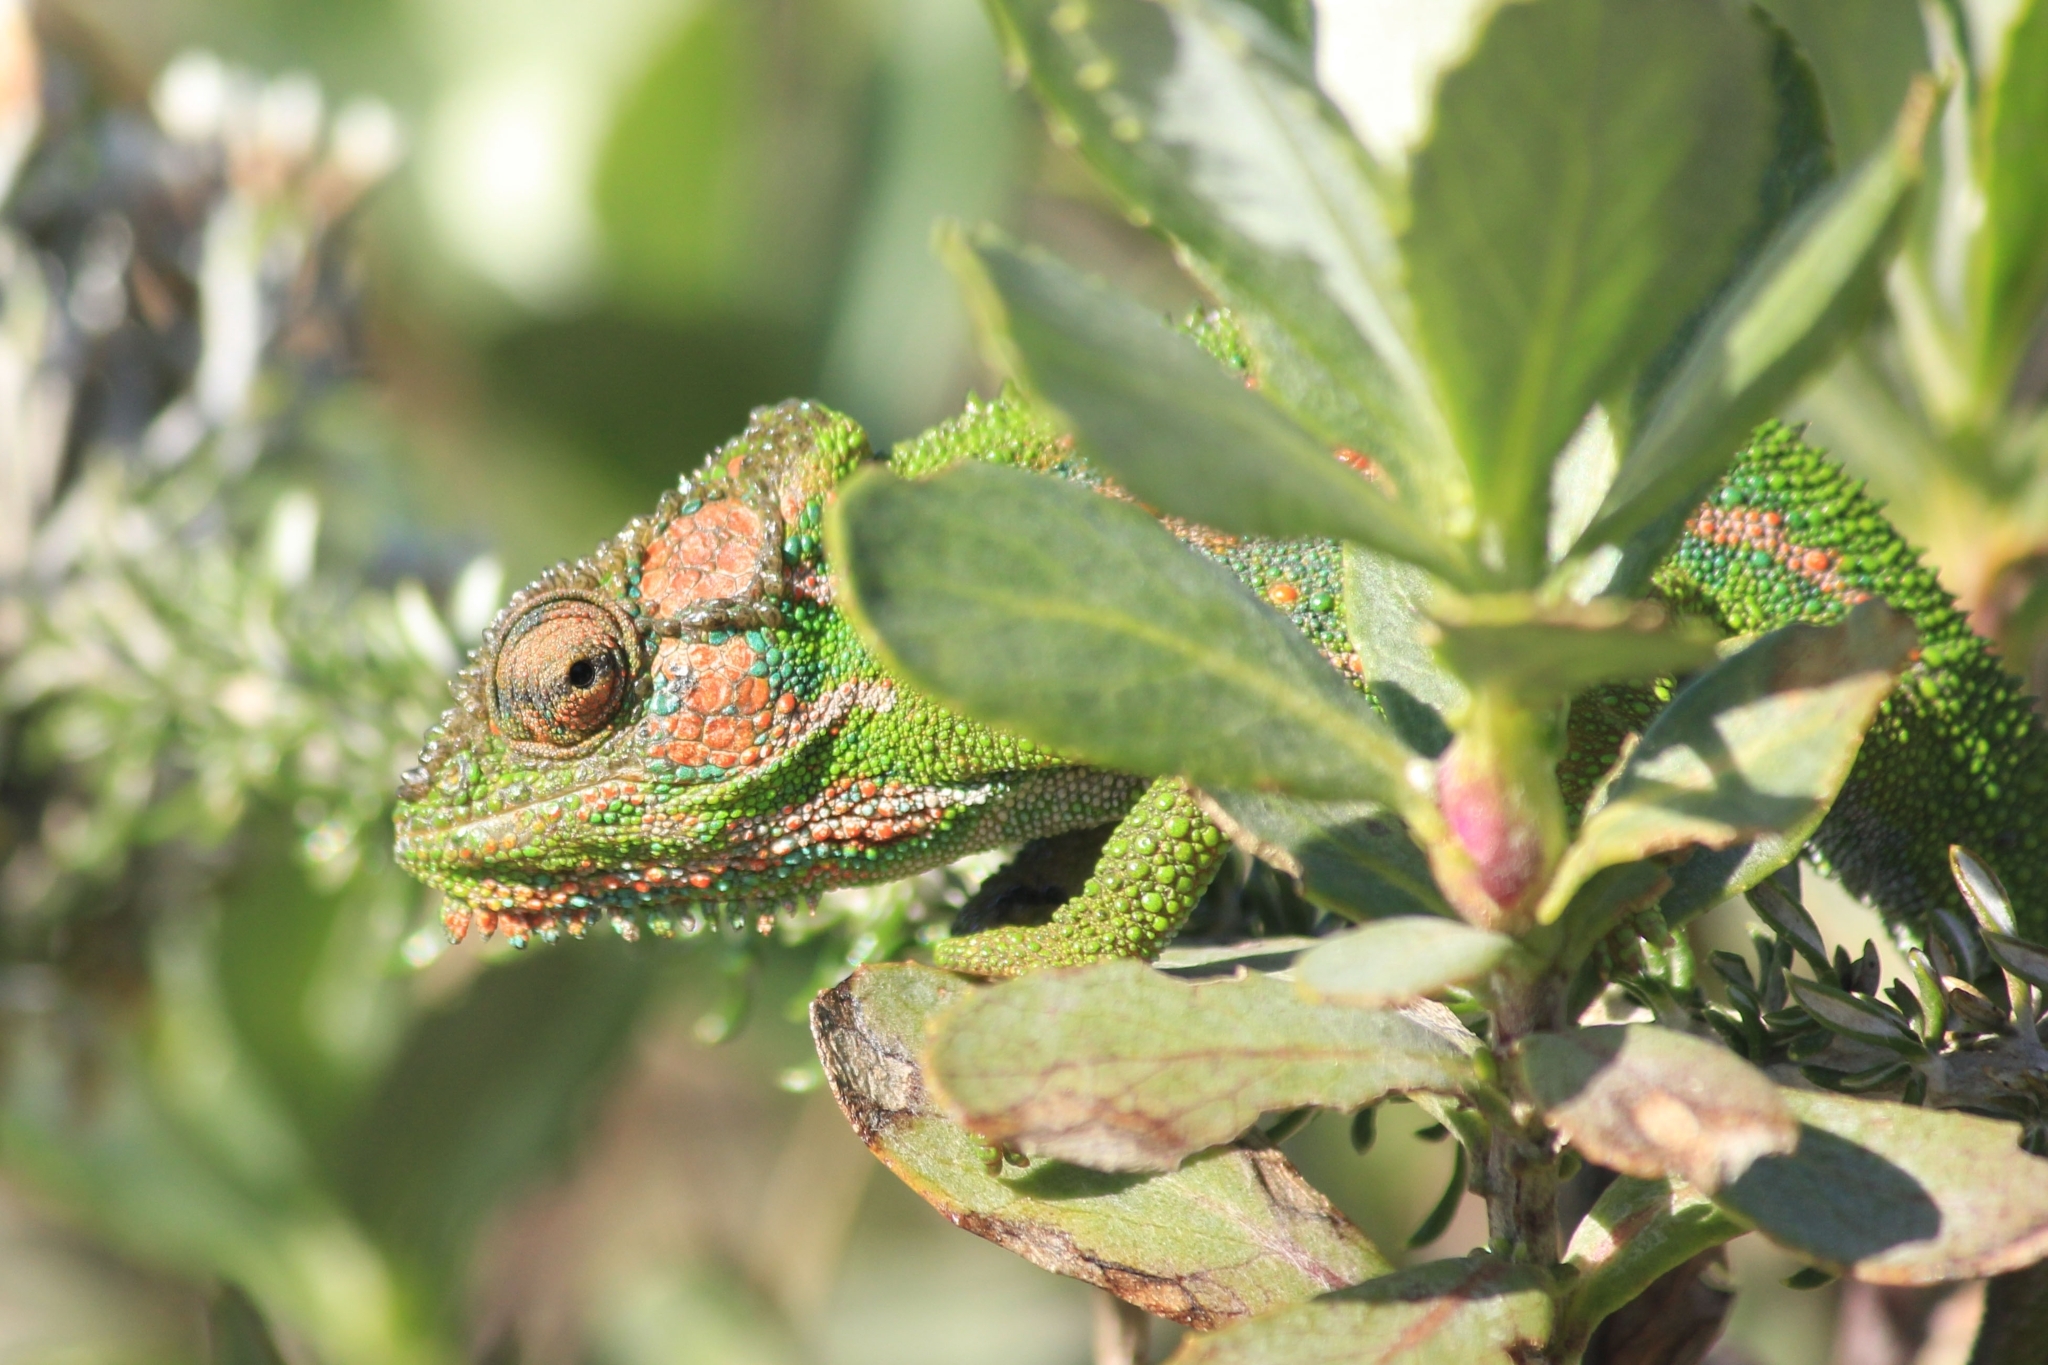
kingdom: Animalia
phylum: Chordata
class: Squamata
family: Chamaeleonidae
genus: Bradypodion
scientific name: Bradypodion pumilum
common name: Cape dwarf chameleon
